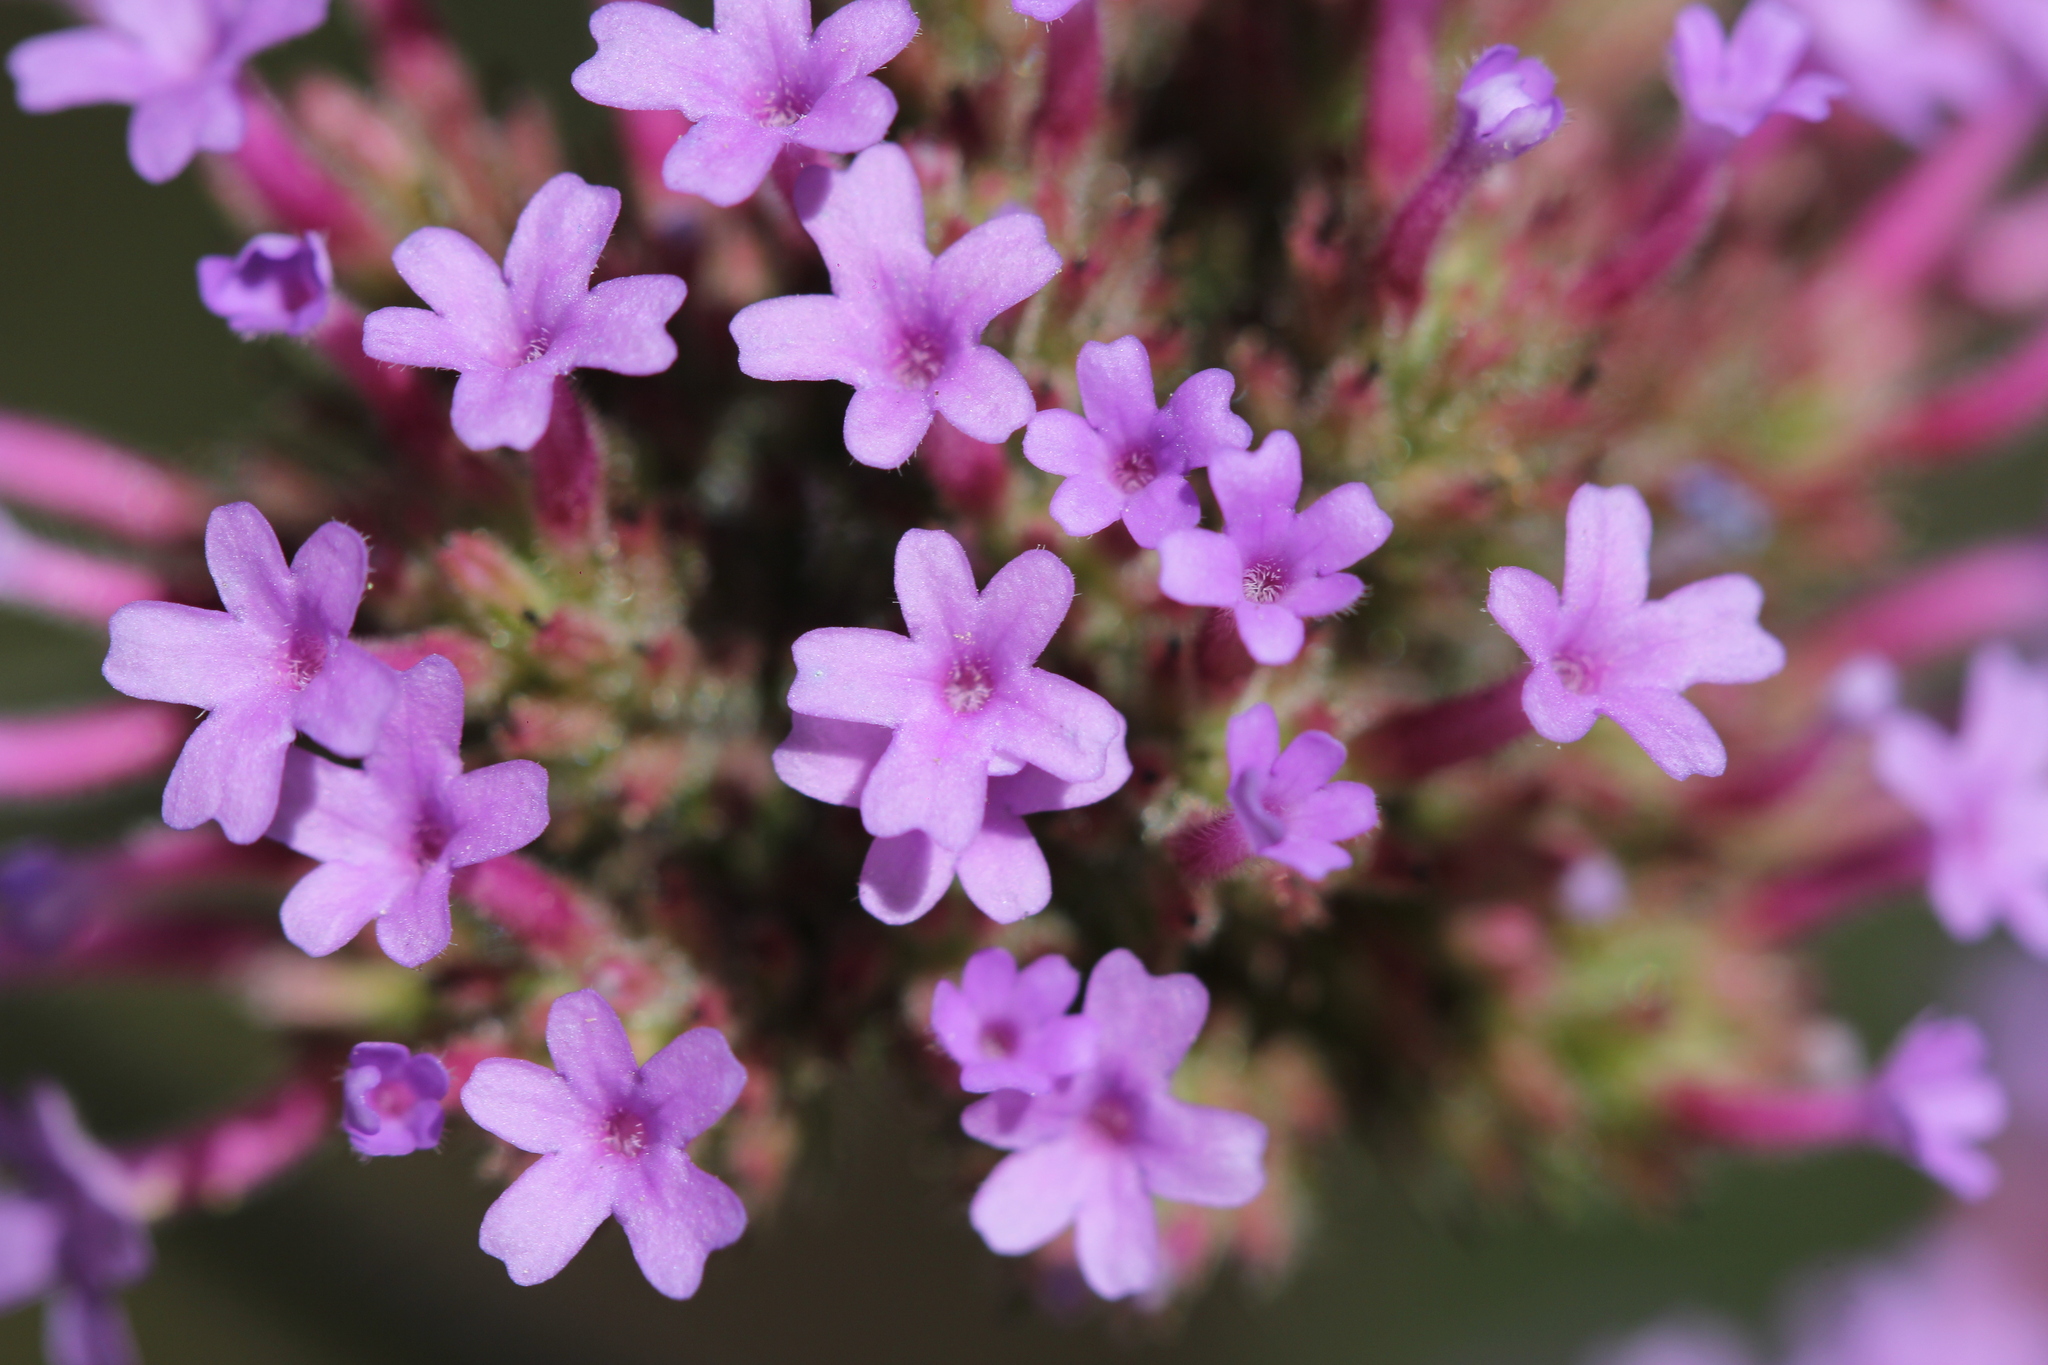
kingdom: Plantae
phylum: Tracheophyta
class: Magnoliopsida
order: Lamiales
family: Verbenaceae
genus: Verbena
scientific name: Verbena bonariensis
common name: Purpletop vervain
